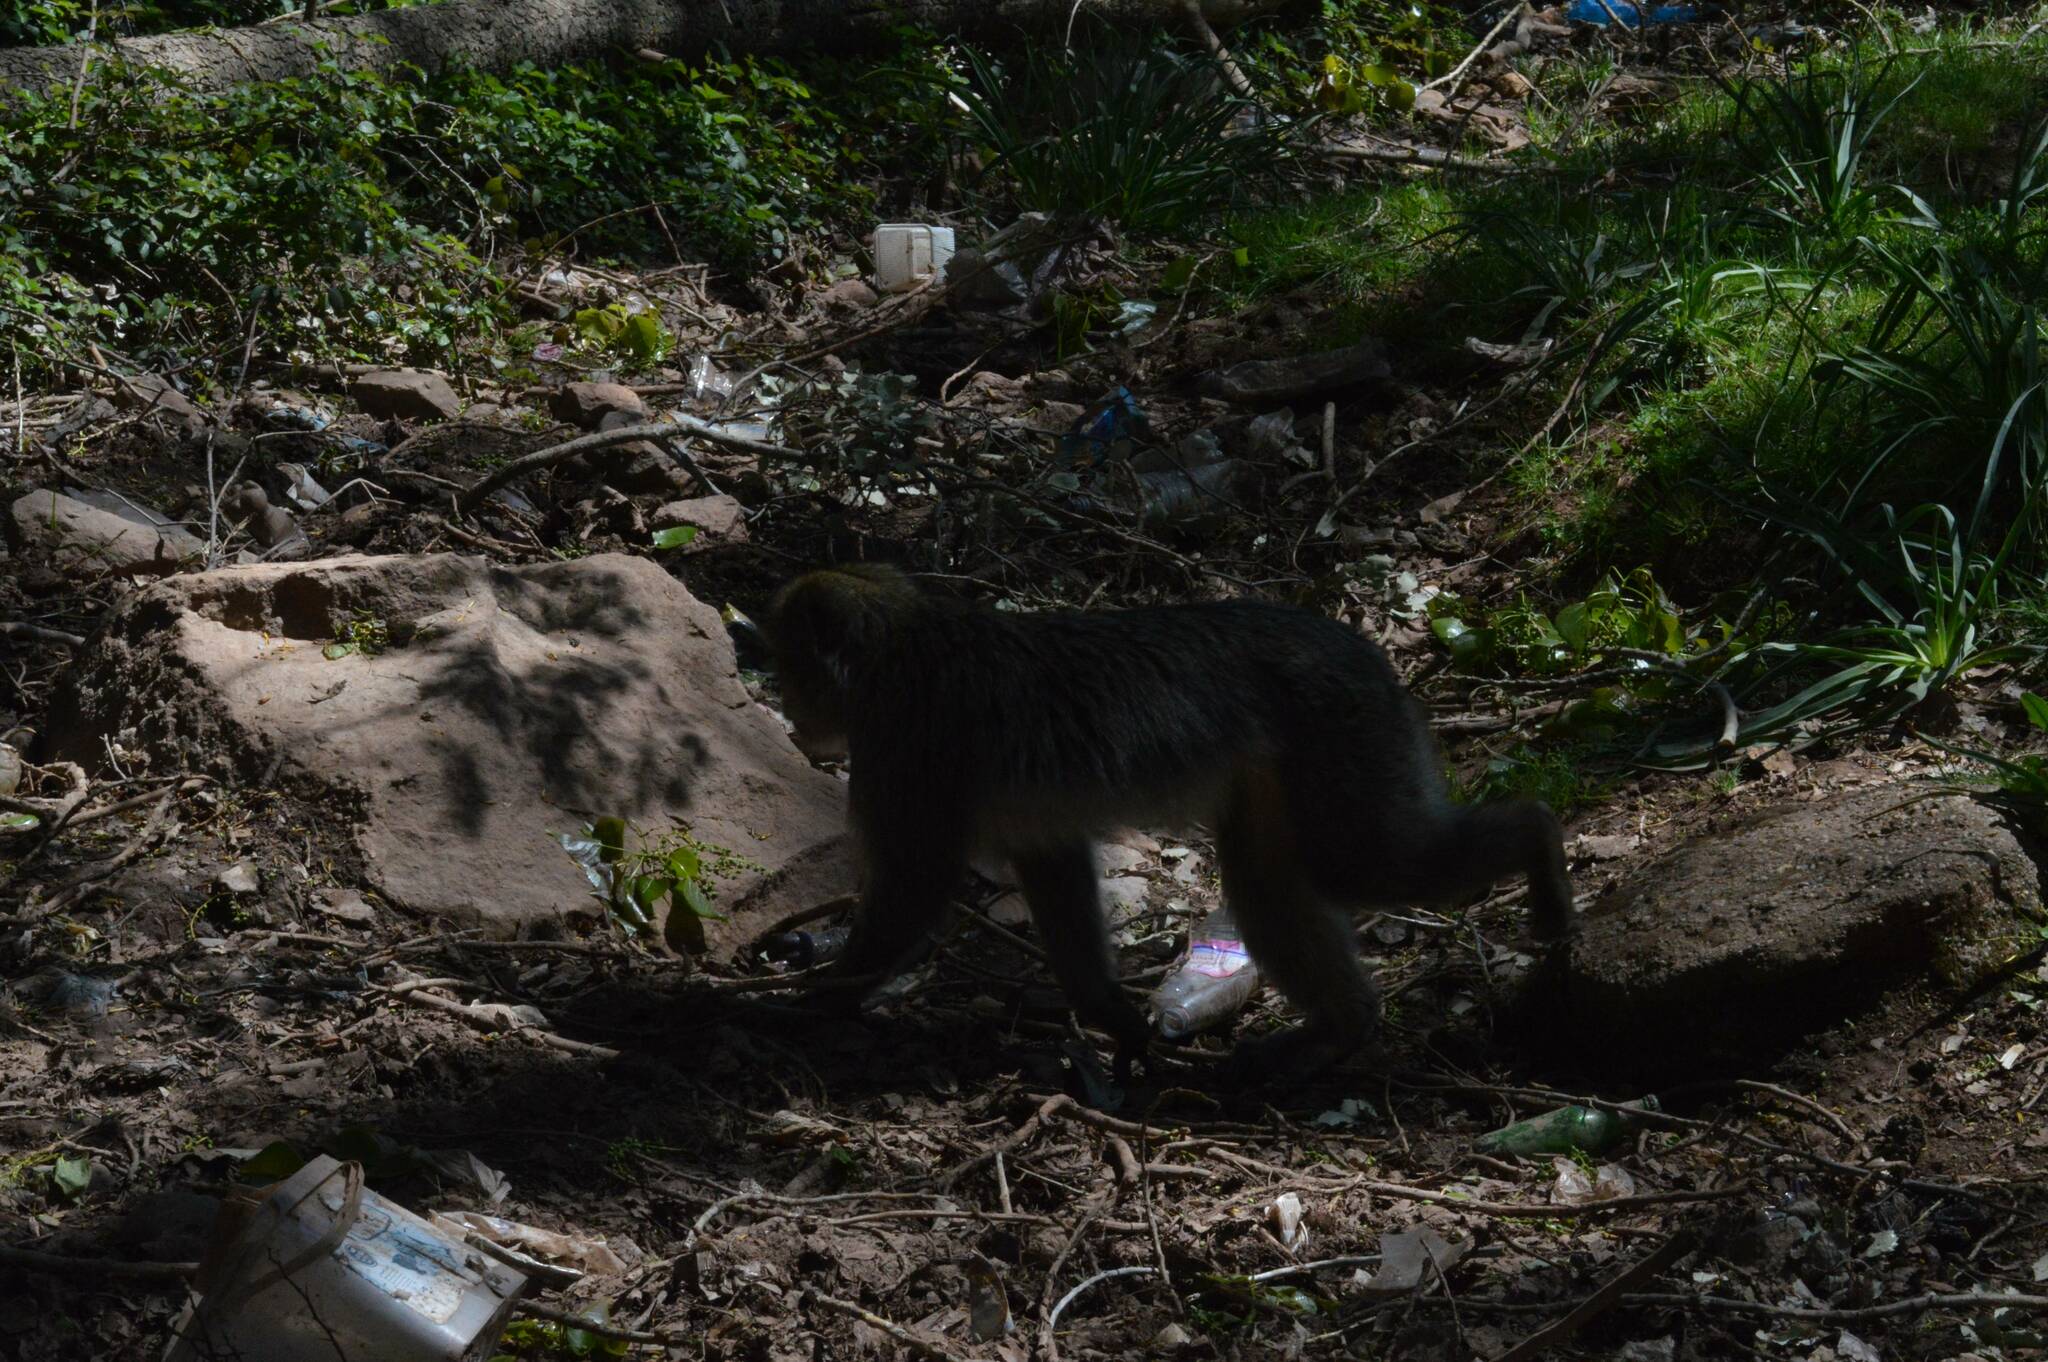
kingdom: Animalia
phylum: Chordata
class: Mammalia
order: Primates
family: Cercopithecidae
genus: Macaca
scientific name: Macaca sylvanus
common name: Barbary macaque
